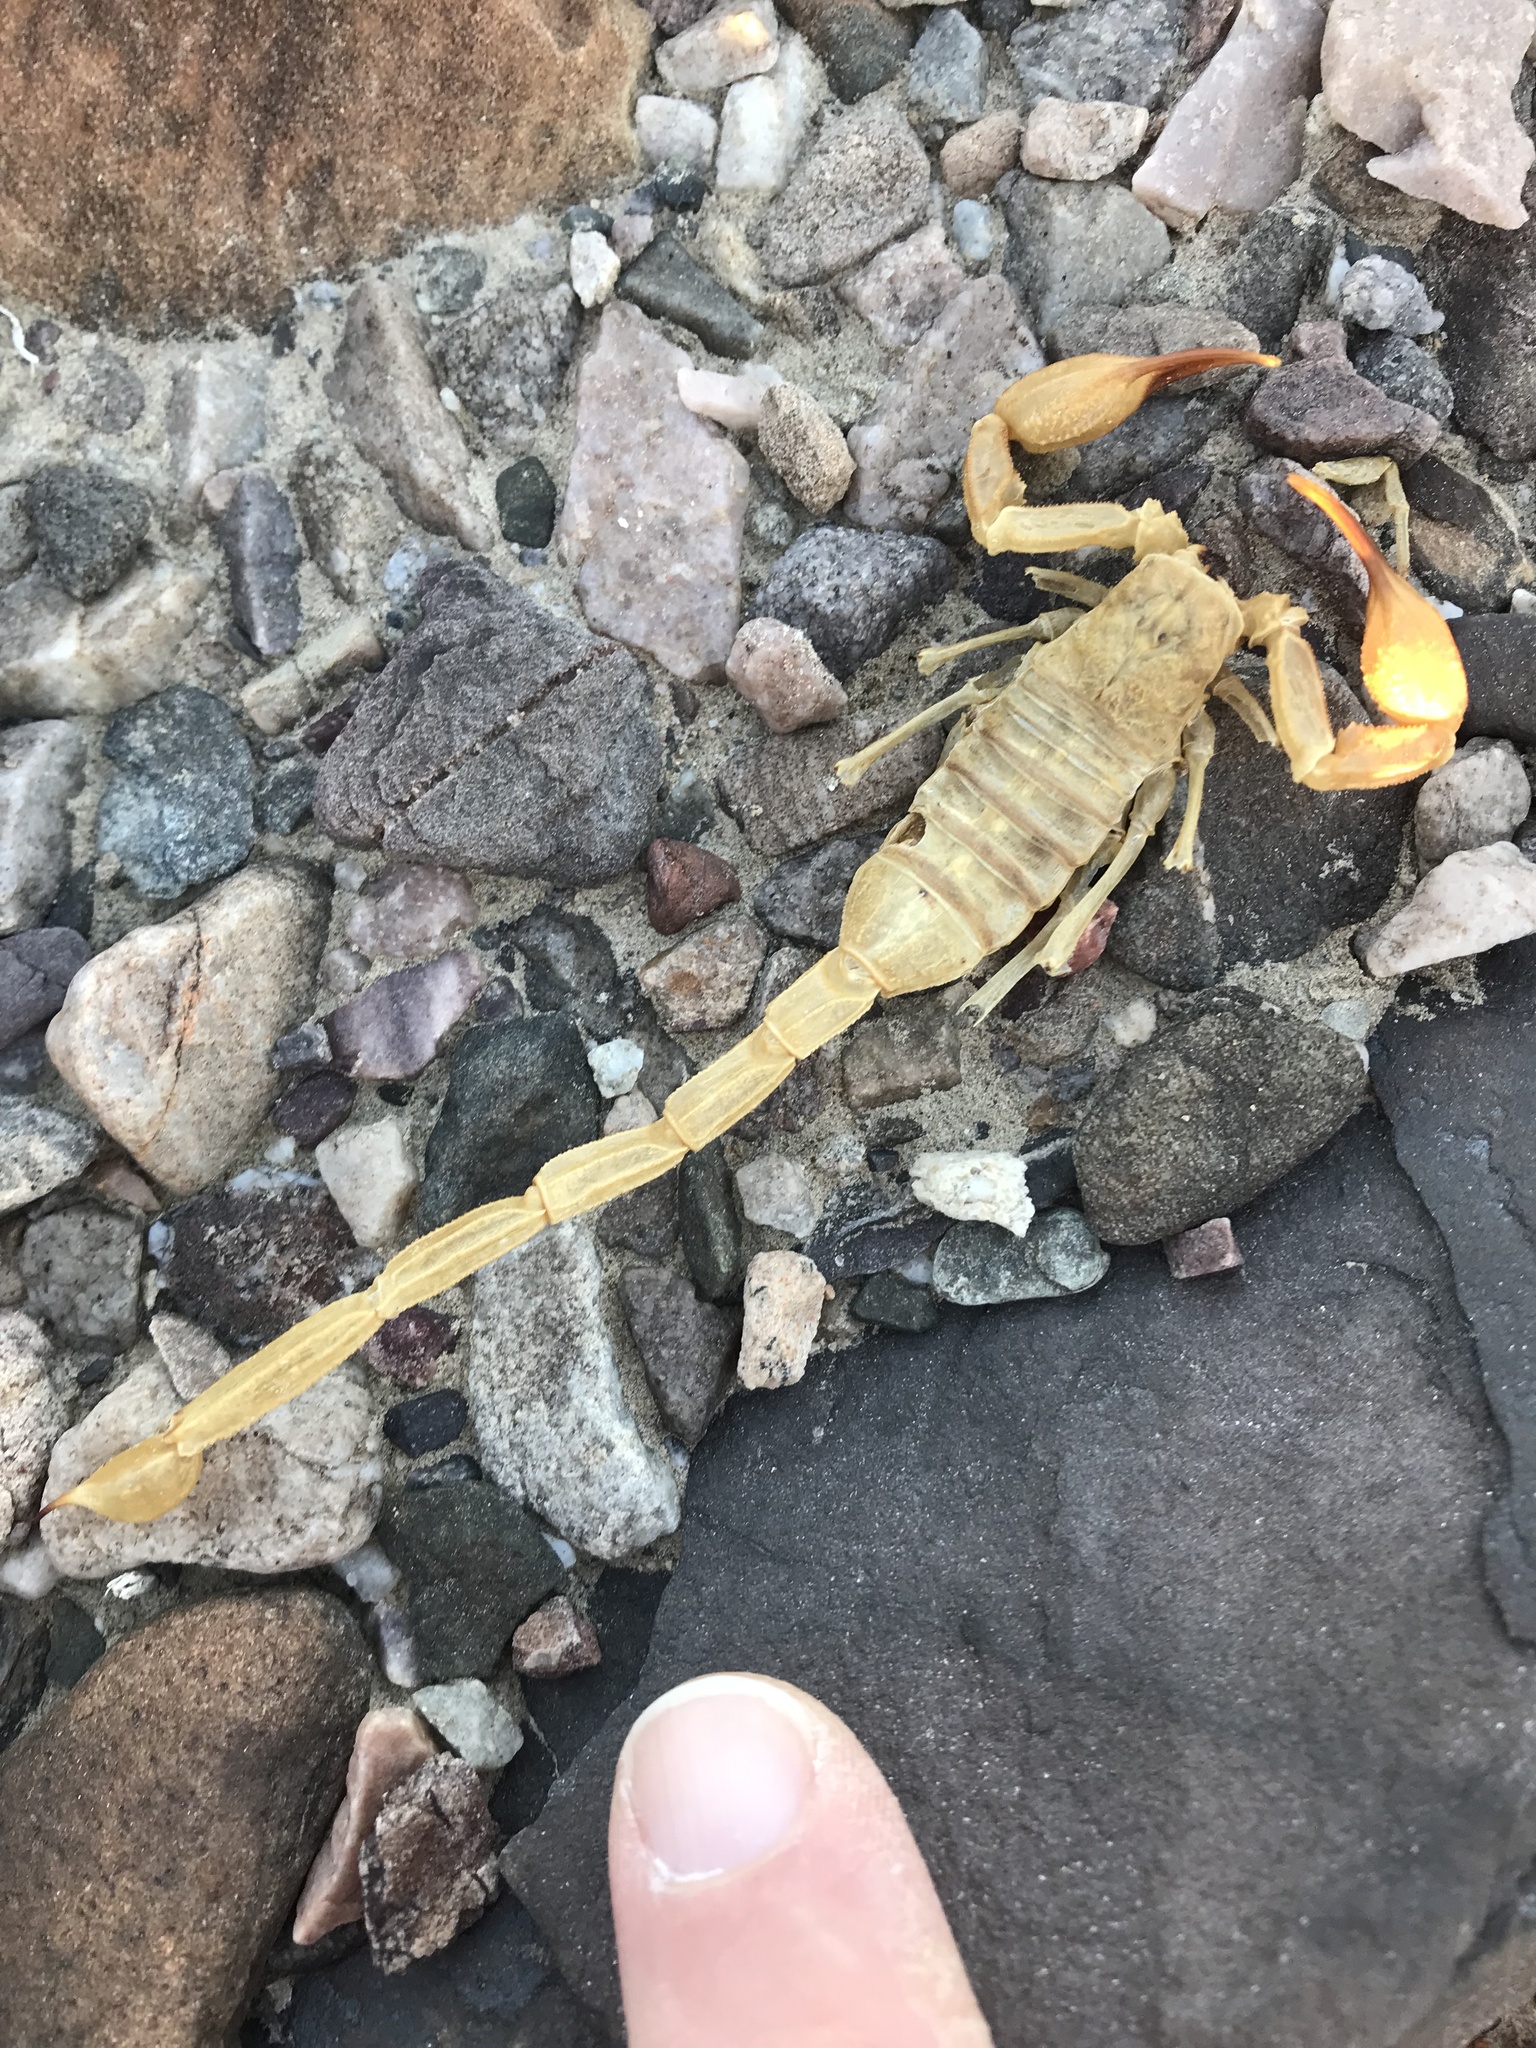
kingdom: Animalia
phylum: Arthropoda
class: Arachnida
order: Scorpiones
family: Vaejovidae
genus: Smeringurus
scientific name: Smeringurus vachoni
